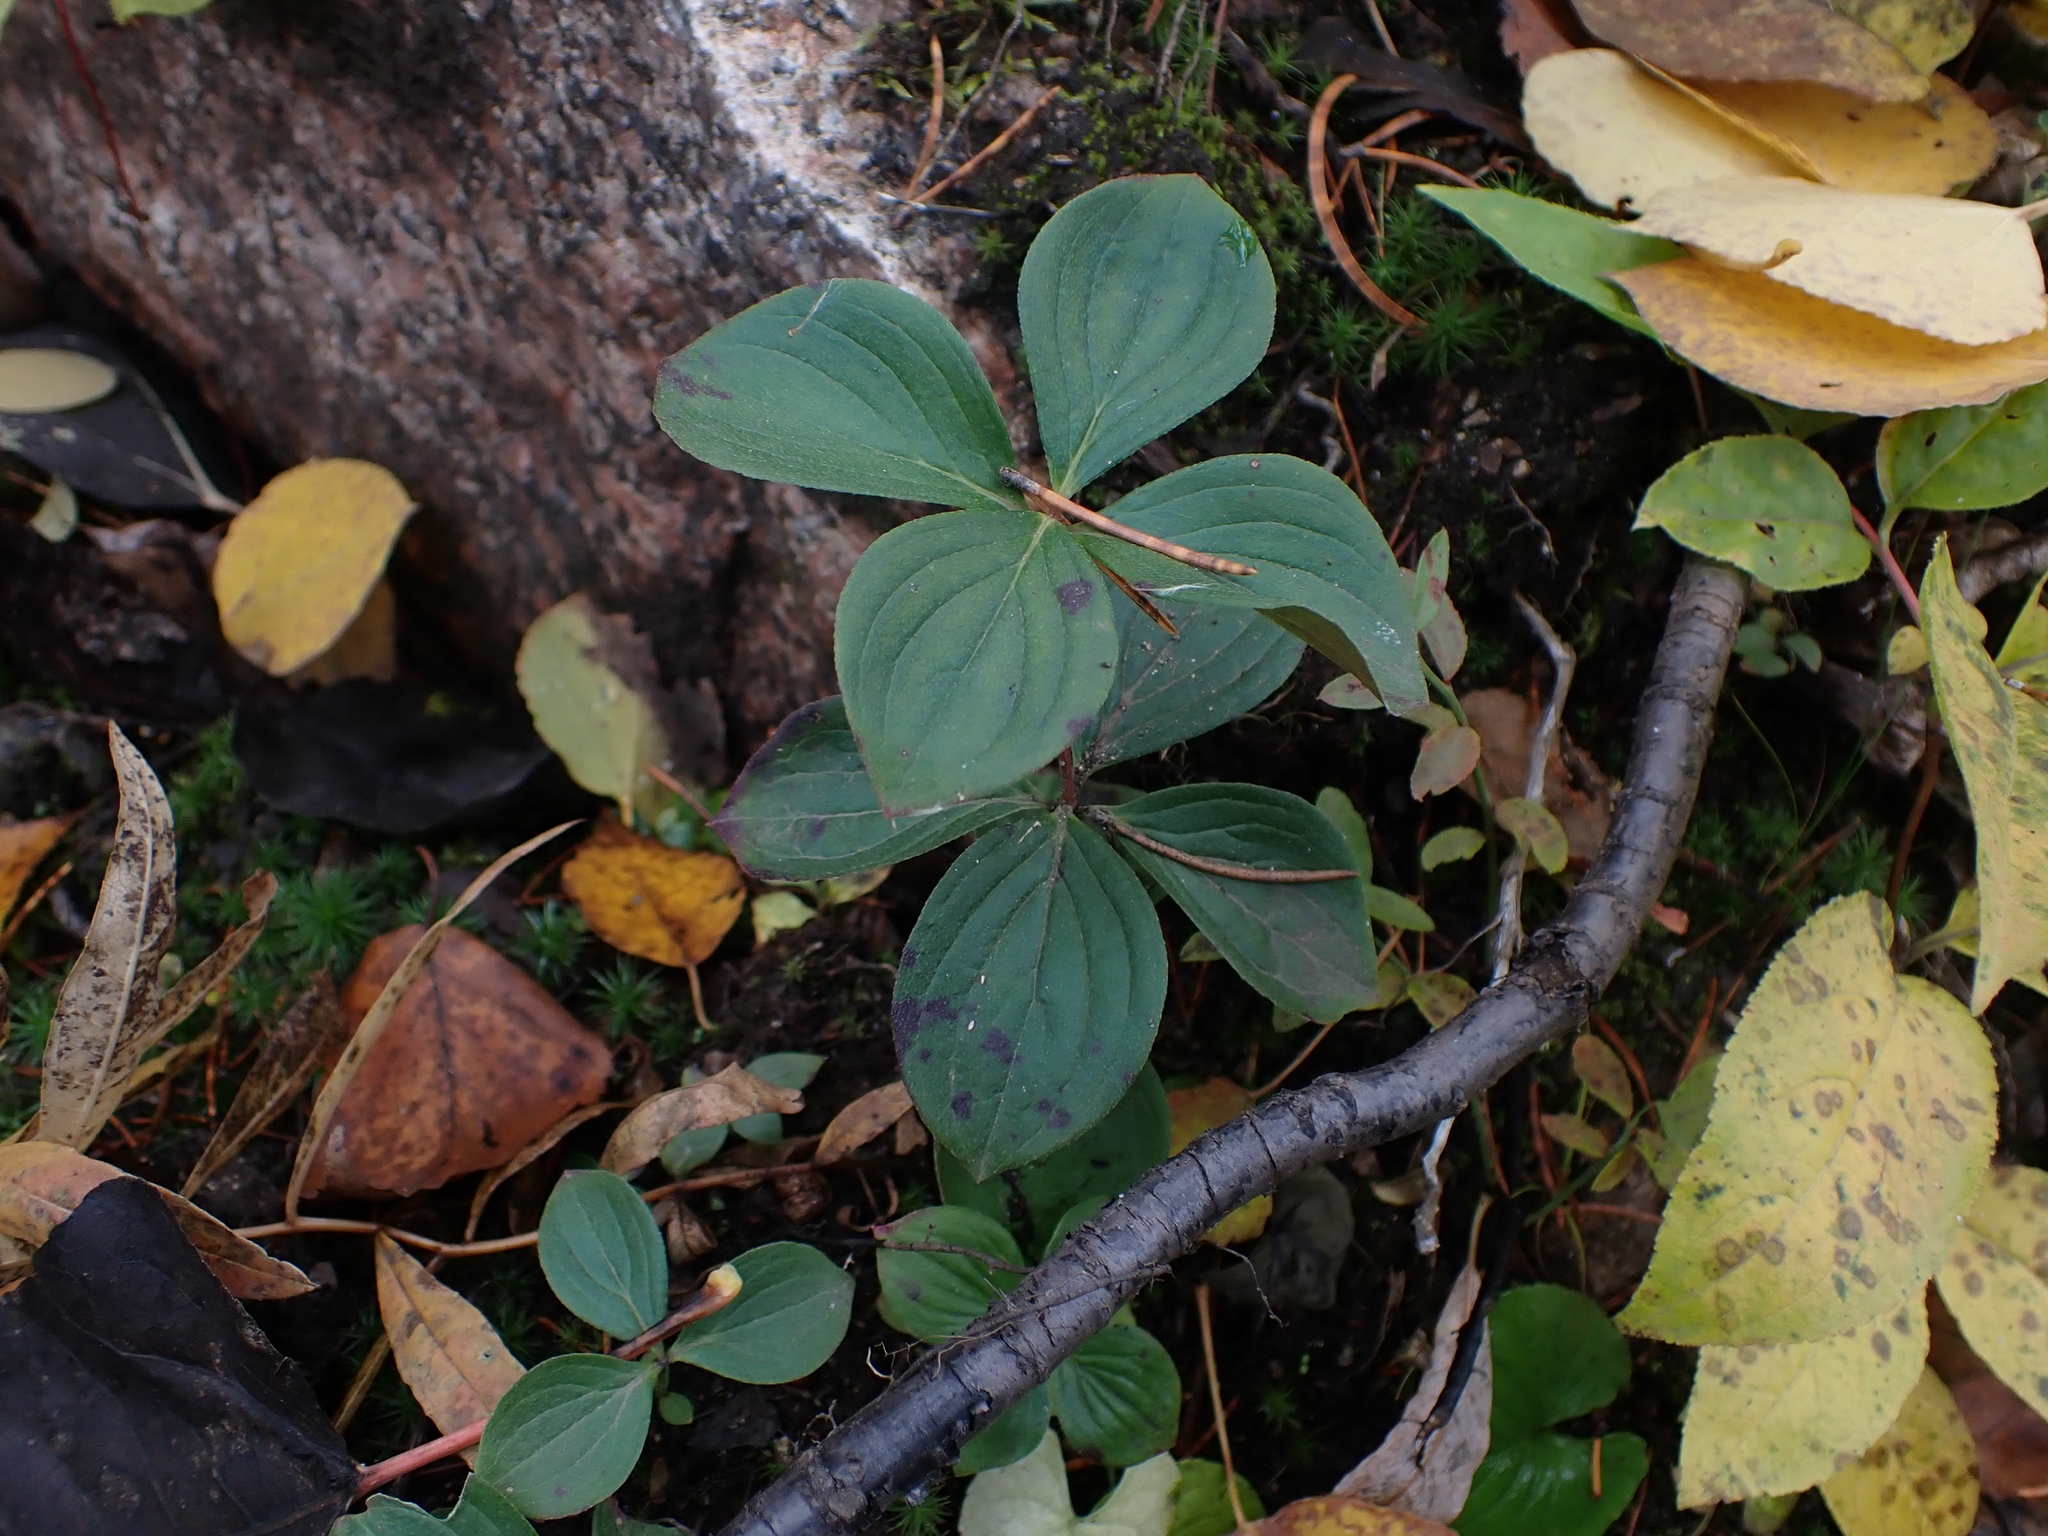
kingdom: Plantae
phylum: Tracheophyta
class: Magnoliopsida
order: Cornales
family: Cornaceae
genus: Cornus
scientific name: Cornus canadensis
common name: Creeping dogwood
